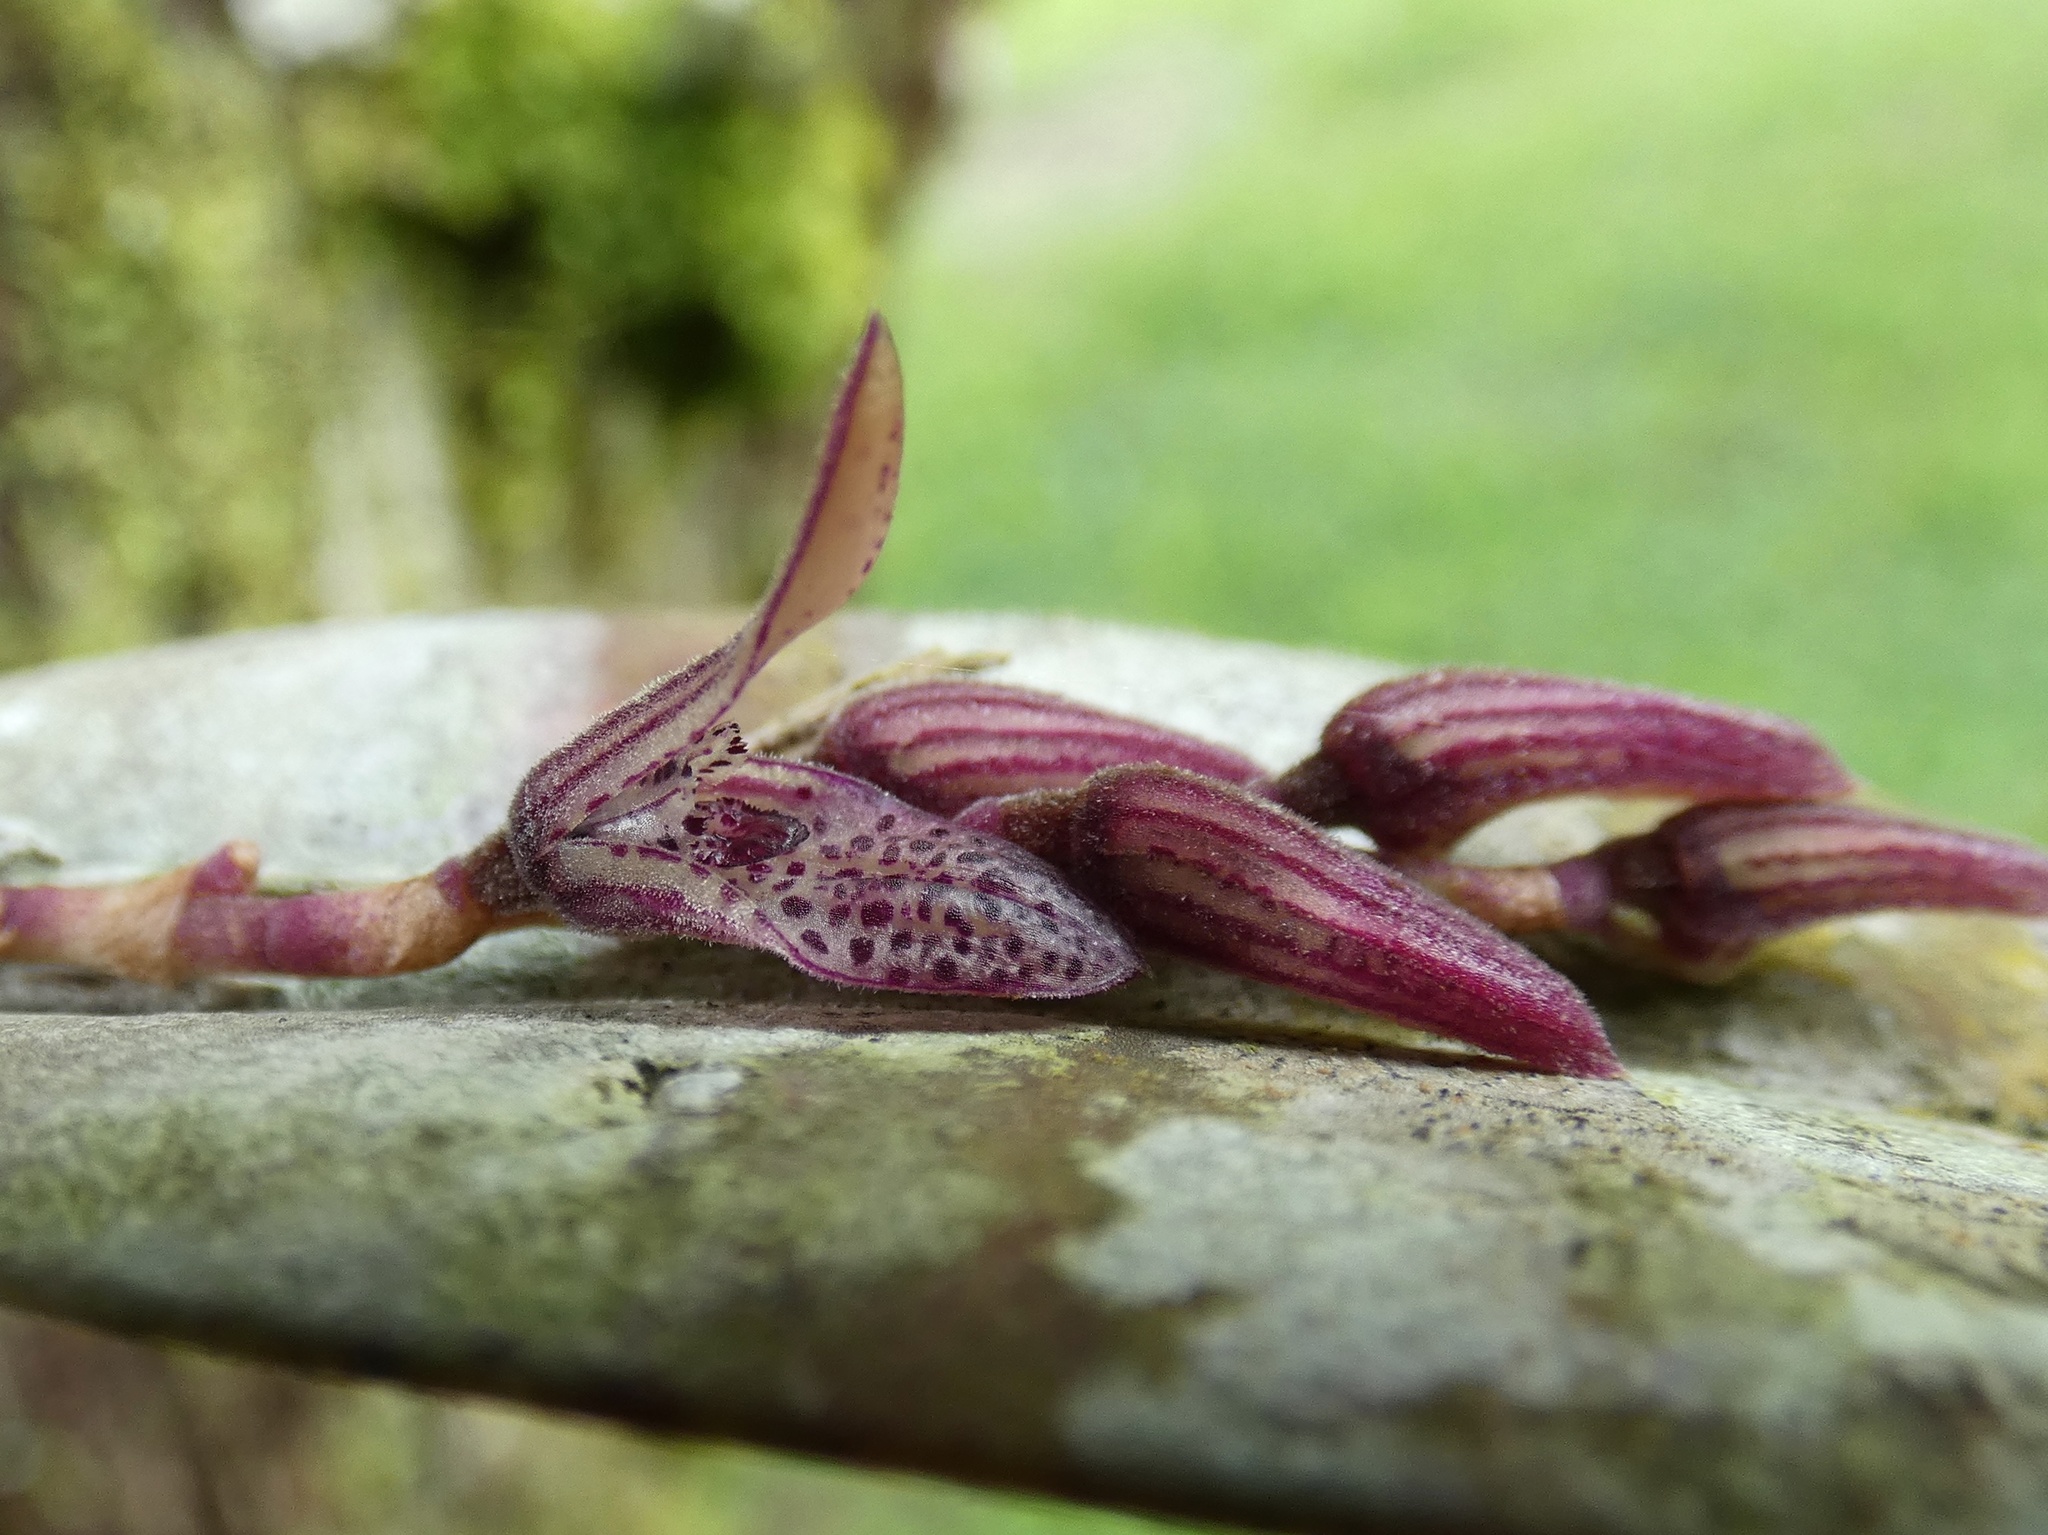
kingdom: Plantae
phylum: Tracheophyta
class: Liliopsida
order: Asparagales
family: Orchidaceae
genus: Acianthera
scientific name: Acianthera pubescens
